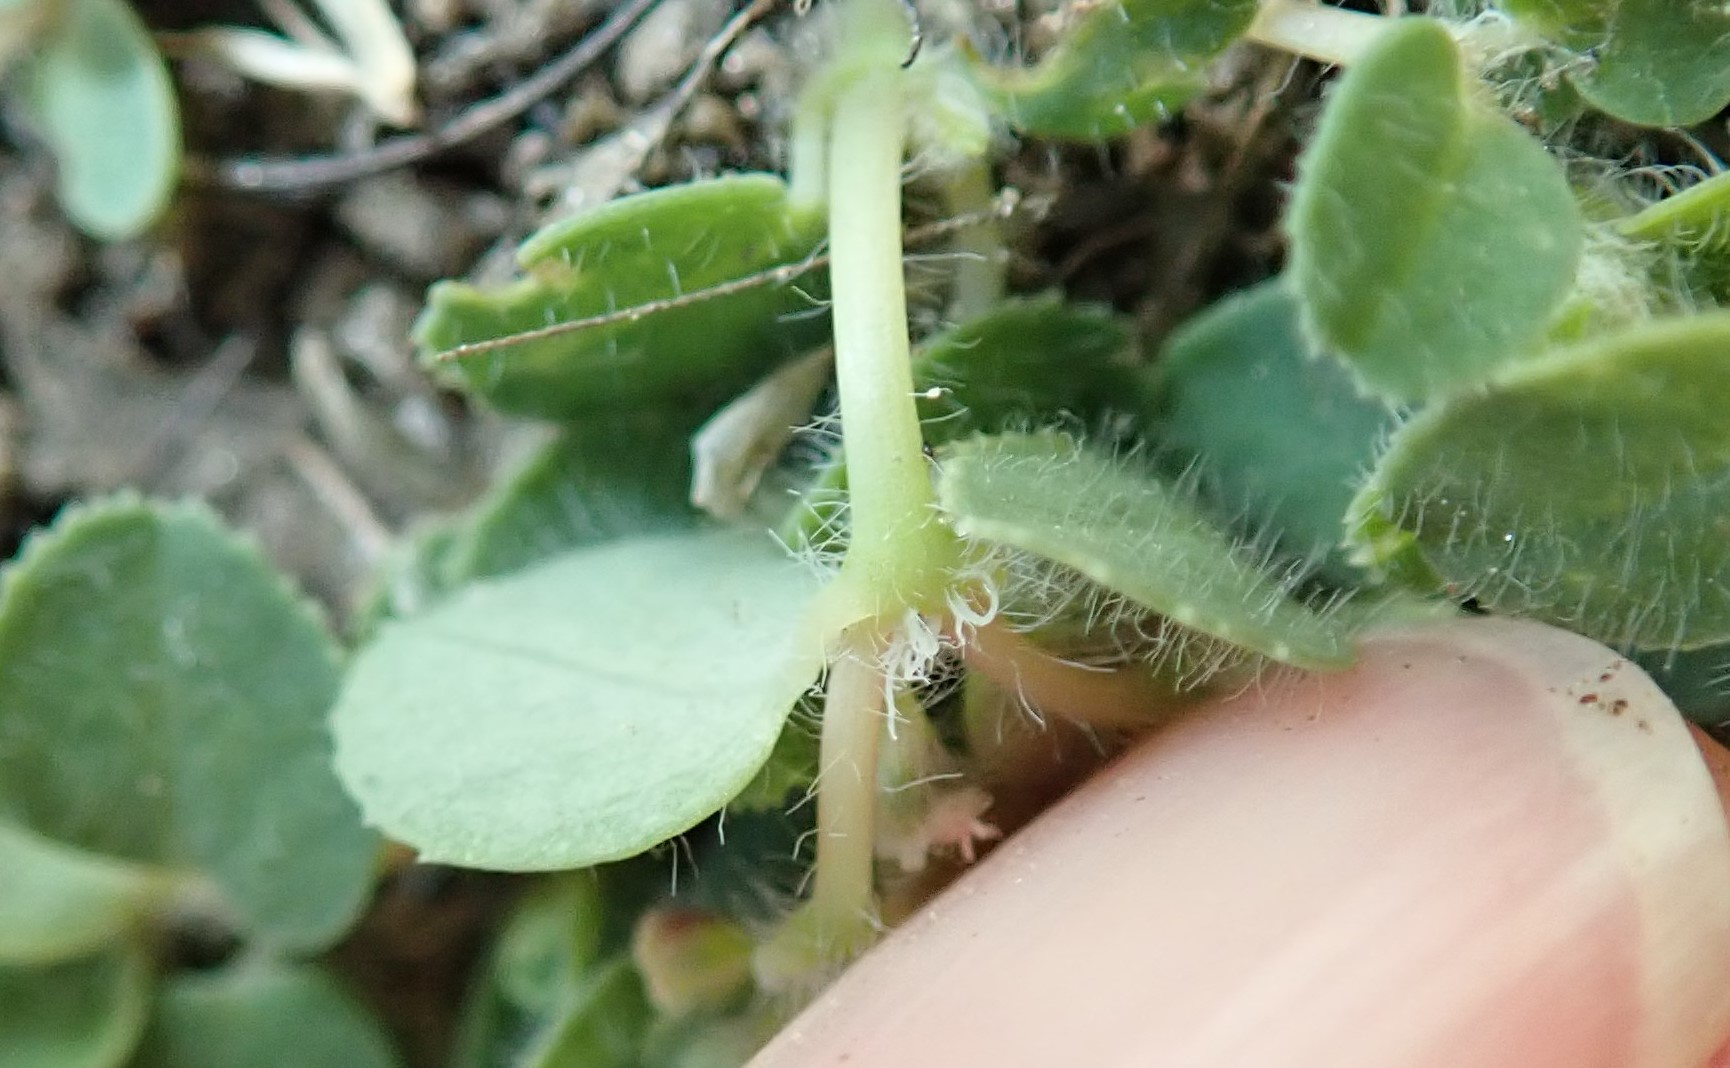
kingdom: Plantae
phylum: Tracheophyta
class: Magnoliopsida
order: Malpighiales
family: Euphorbiaceae
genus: Euphorbia
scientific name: Euphorbia serpillifolia
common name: Thyme-leaf spurge
